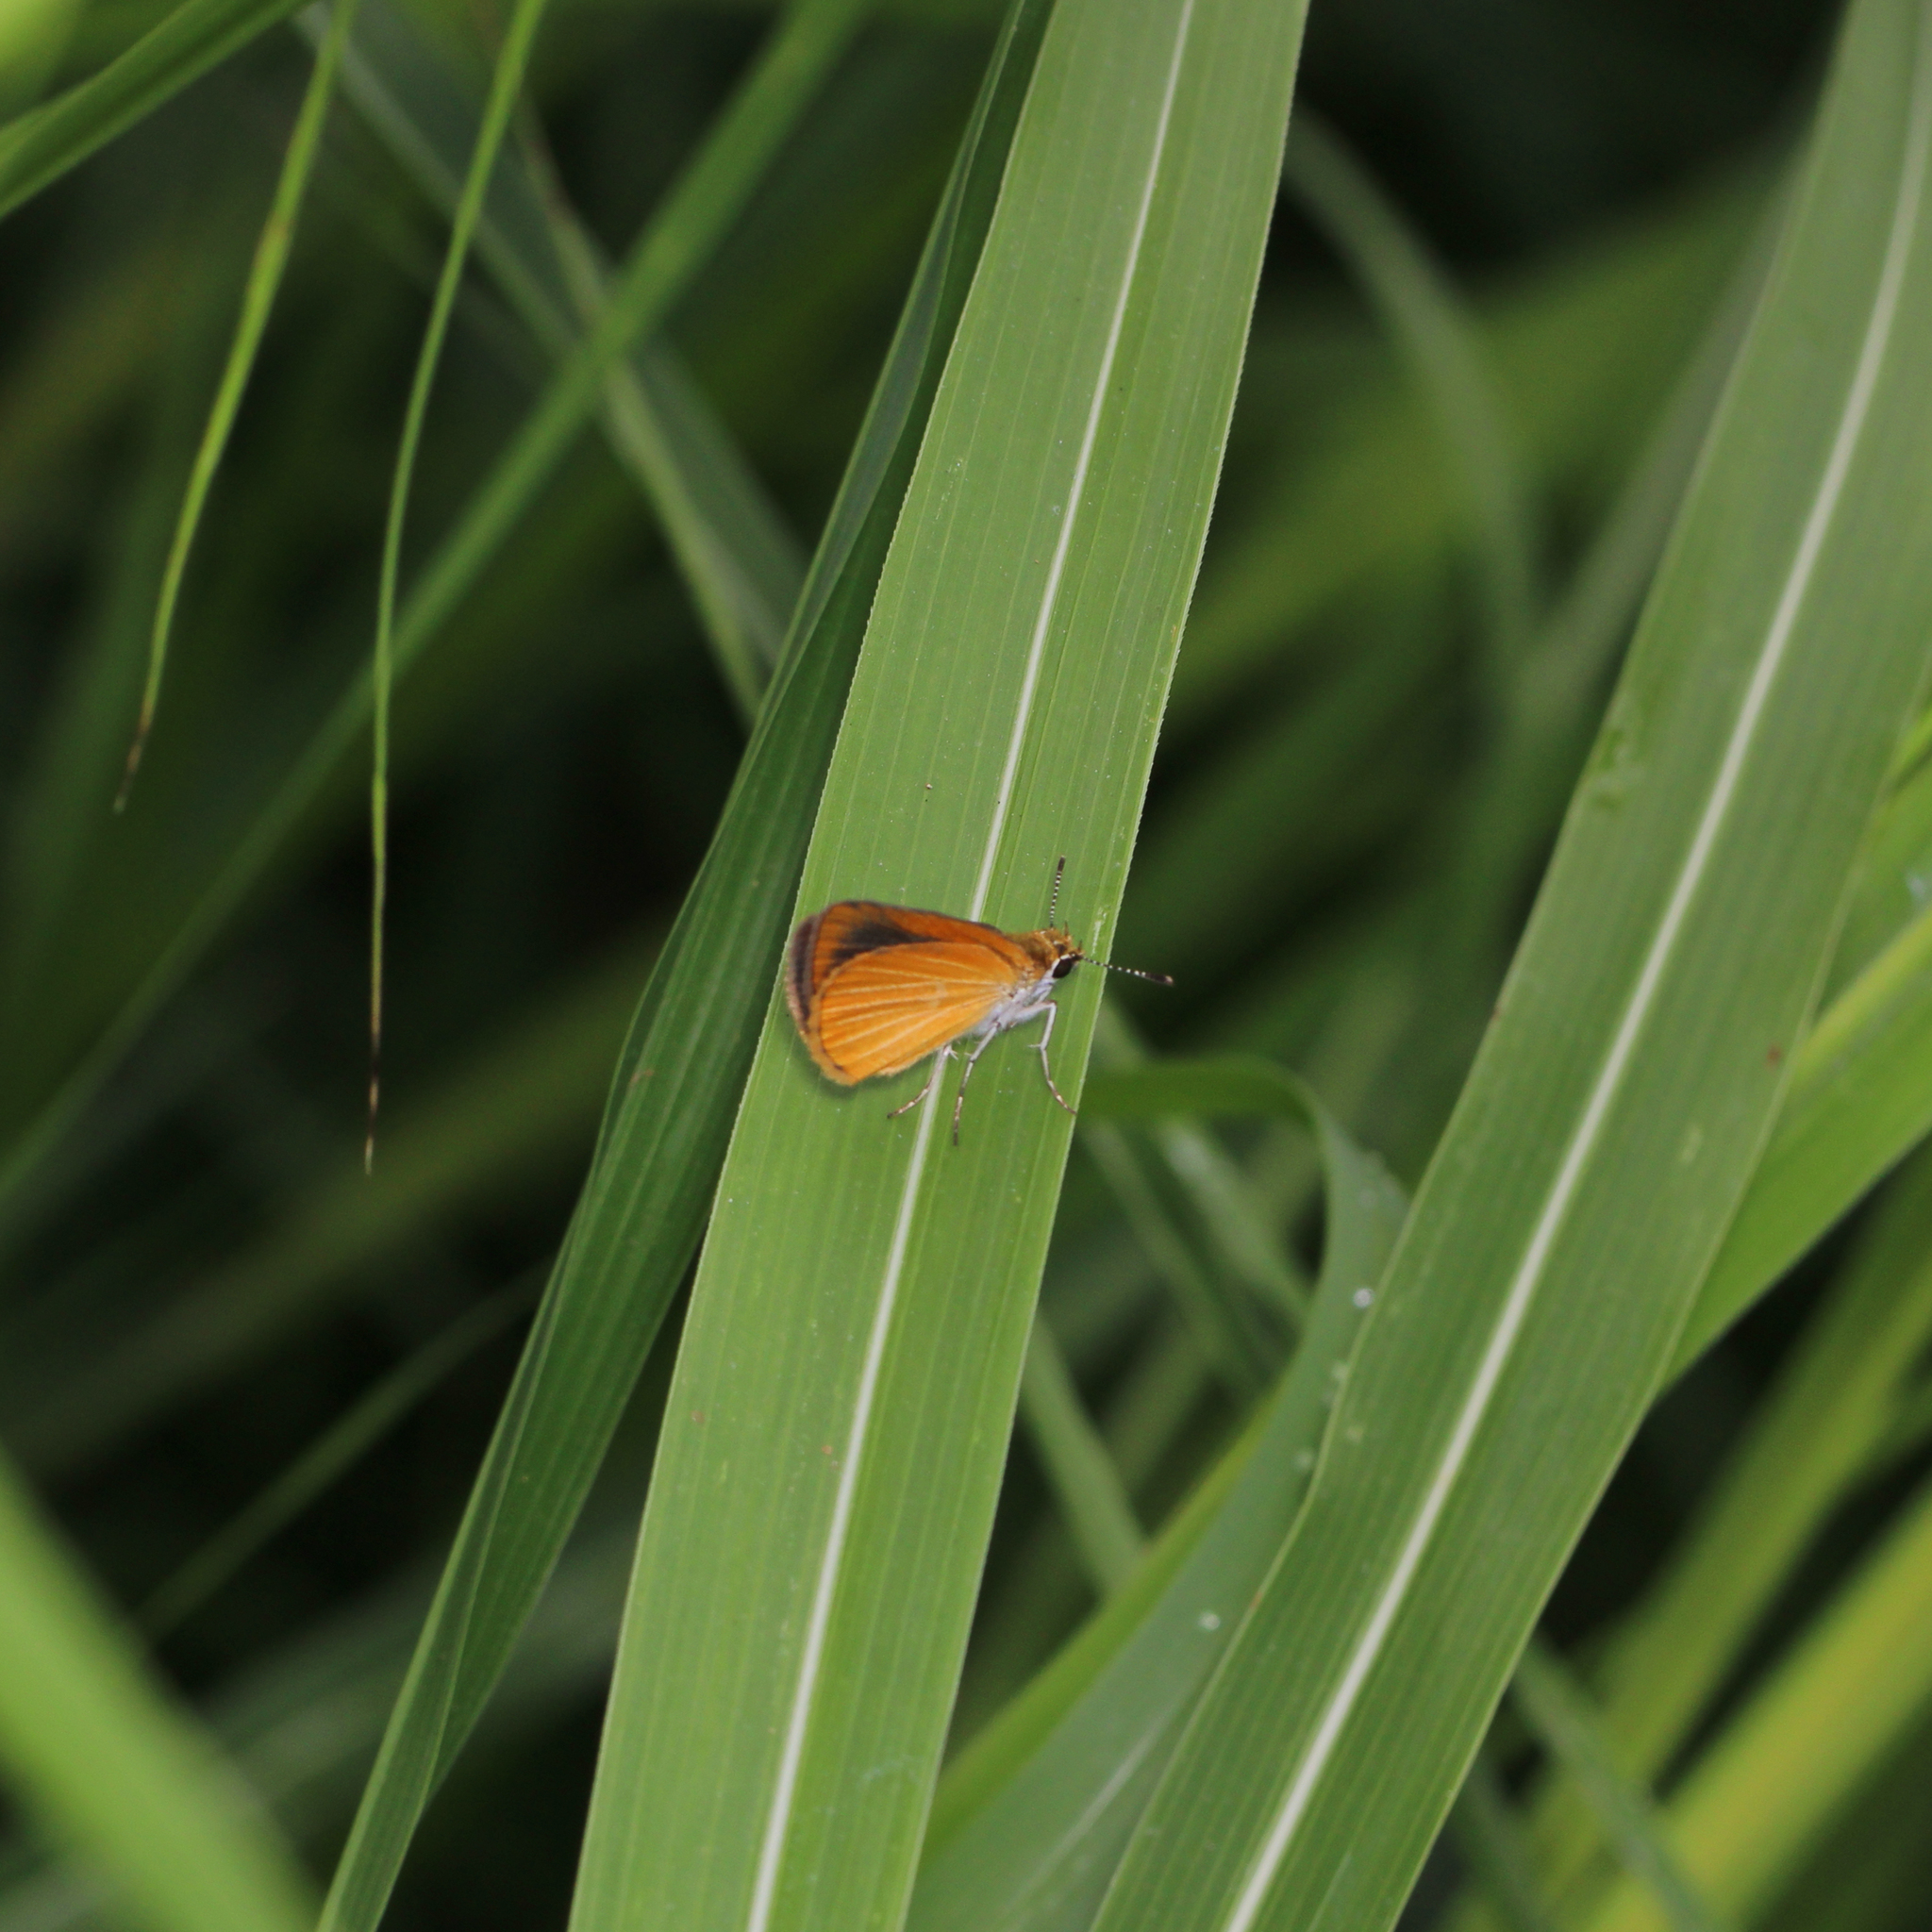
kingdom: Animalia
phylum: Arthropoda
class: Insecta
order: Lepidoptera
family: Hesperiidae
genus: Ancyloxypha
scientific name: Ancyloxypha numitor
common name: Least skipper
